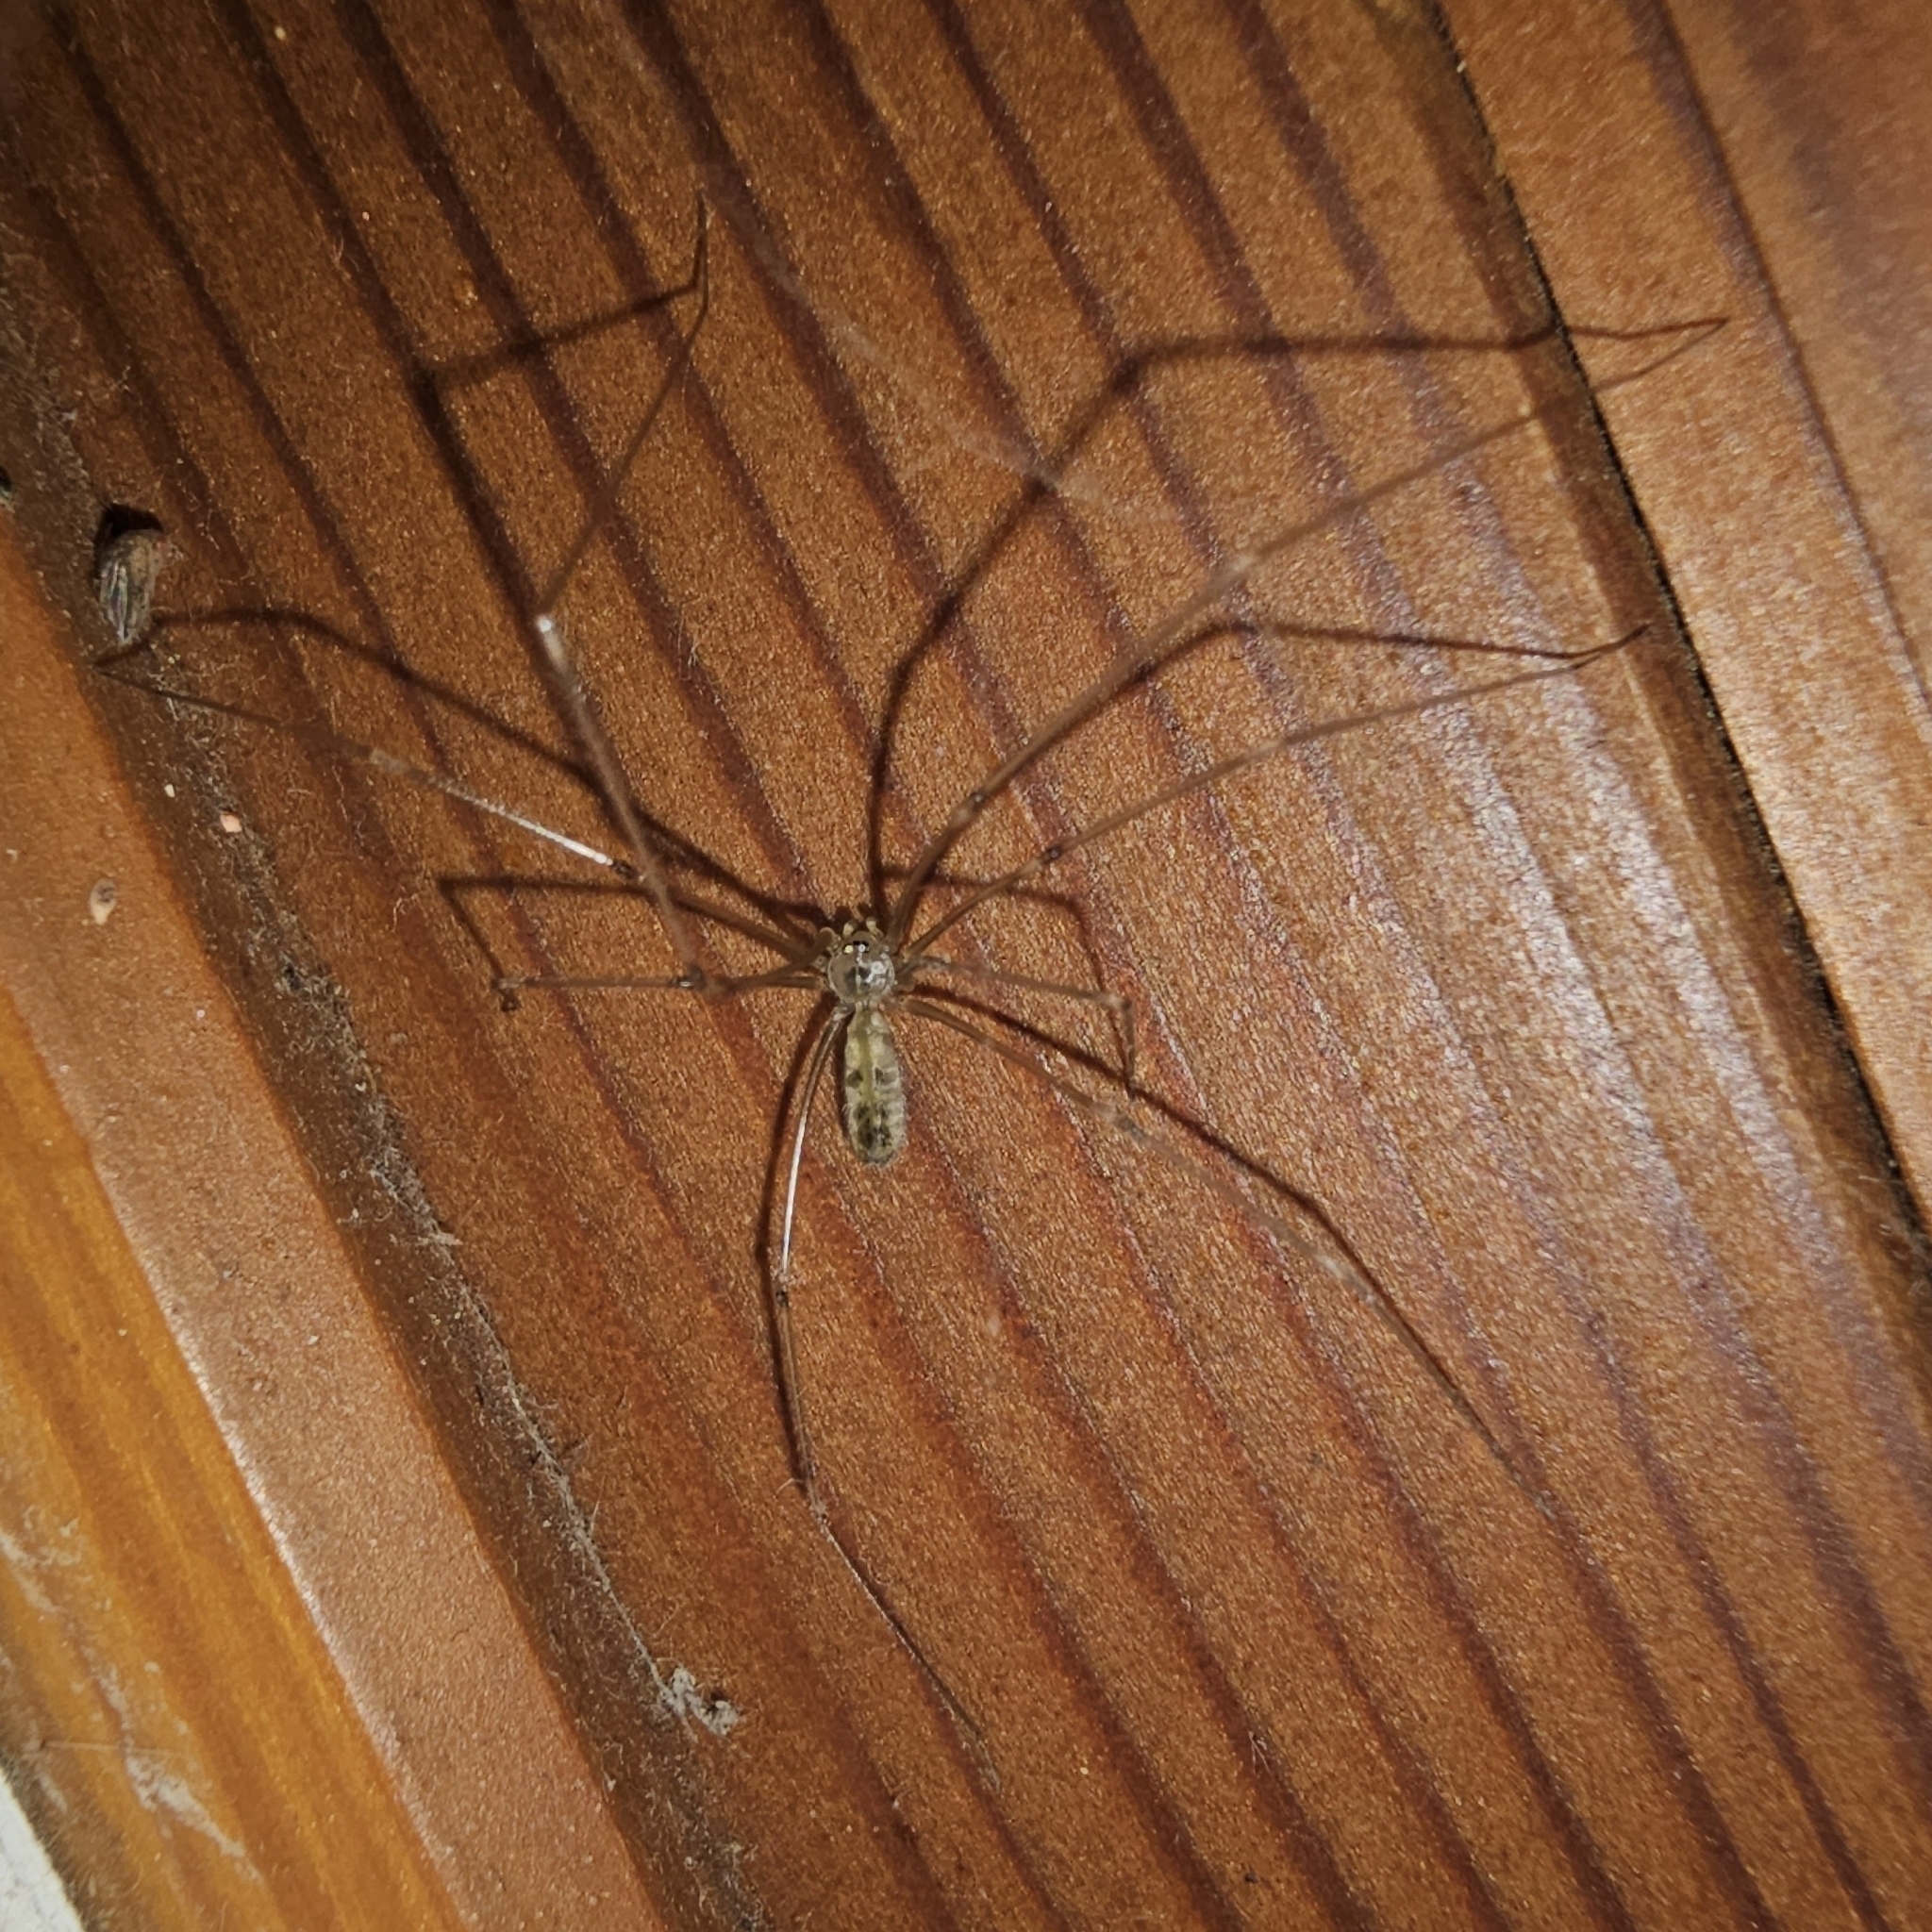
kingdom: Animalia
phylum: Arthropoda
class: Arachnida
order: Araneae
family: Pholcidae
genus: Pholcus
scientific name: Pholcus phalangioides
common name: Longbodied cellar spider
